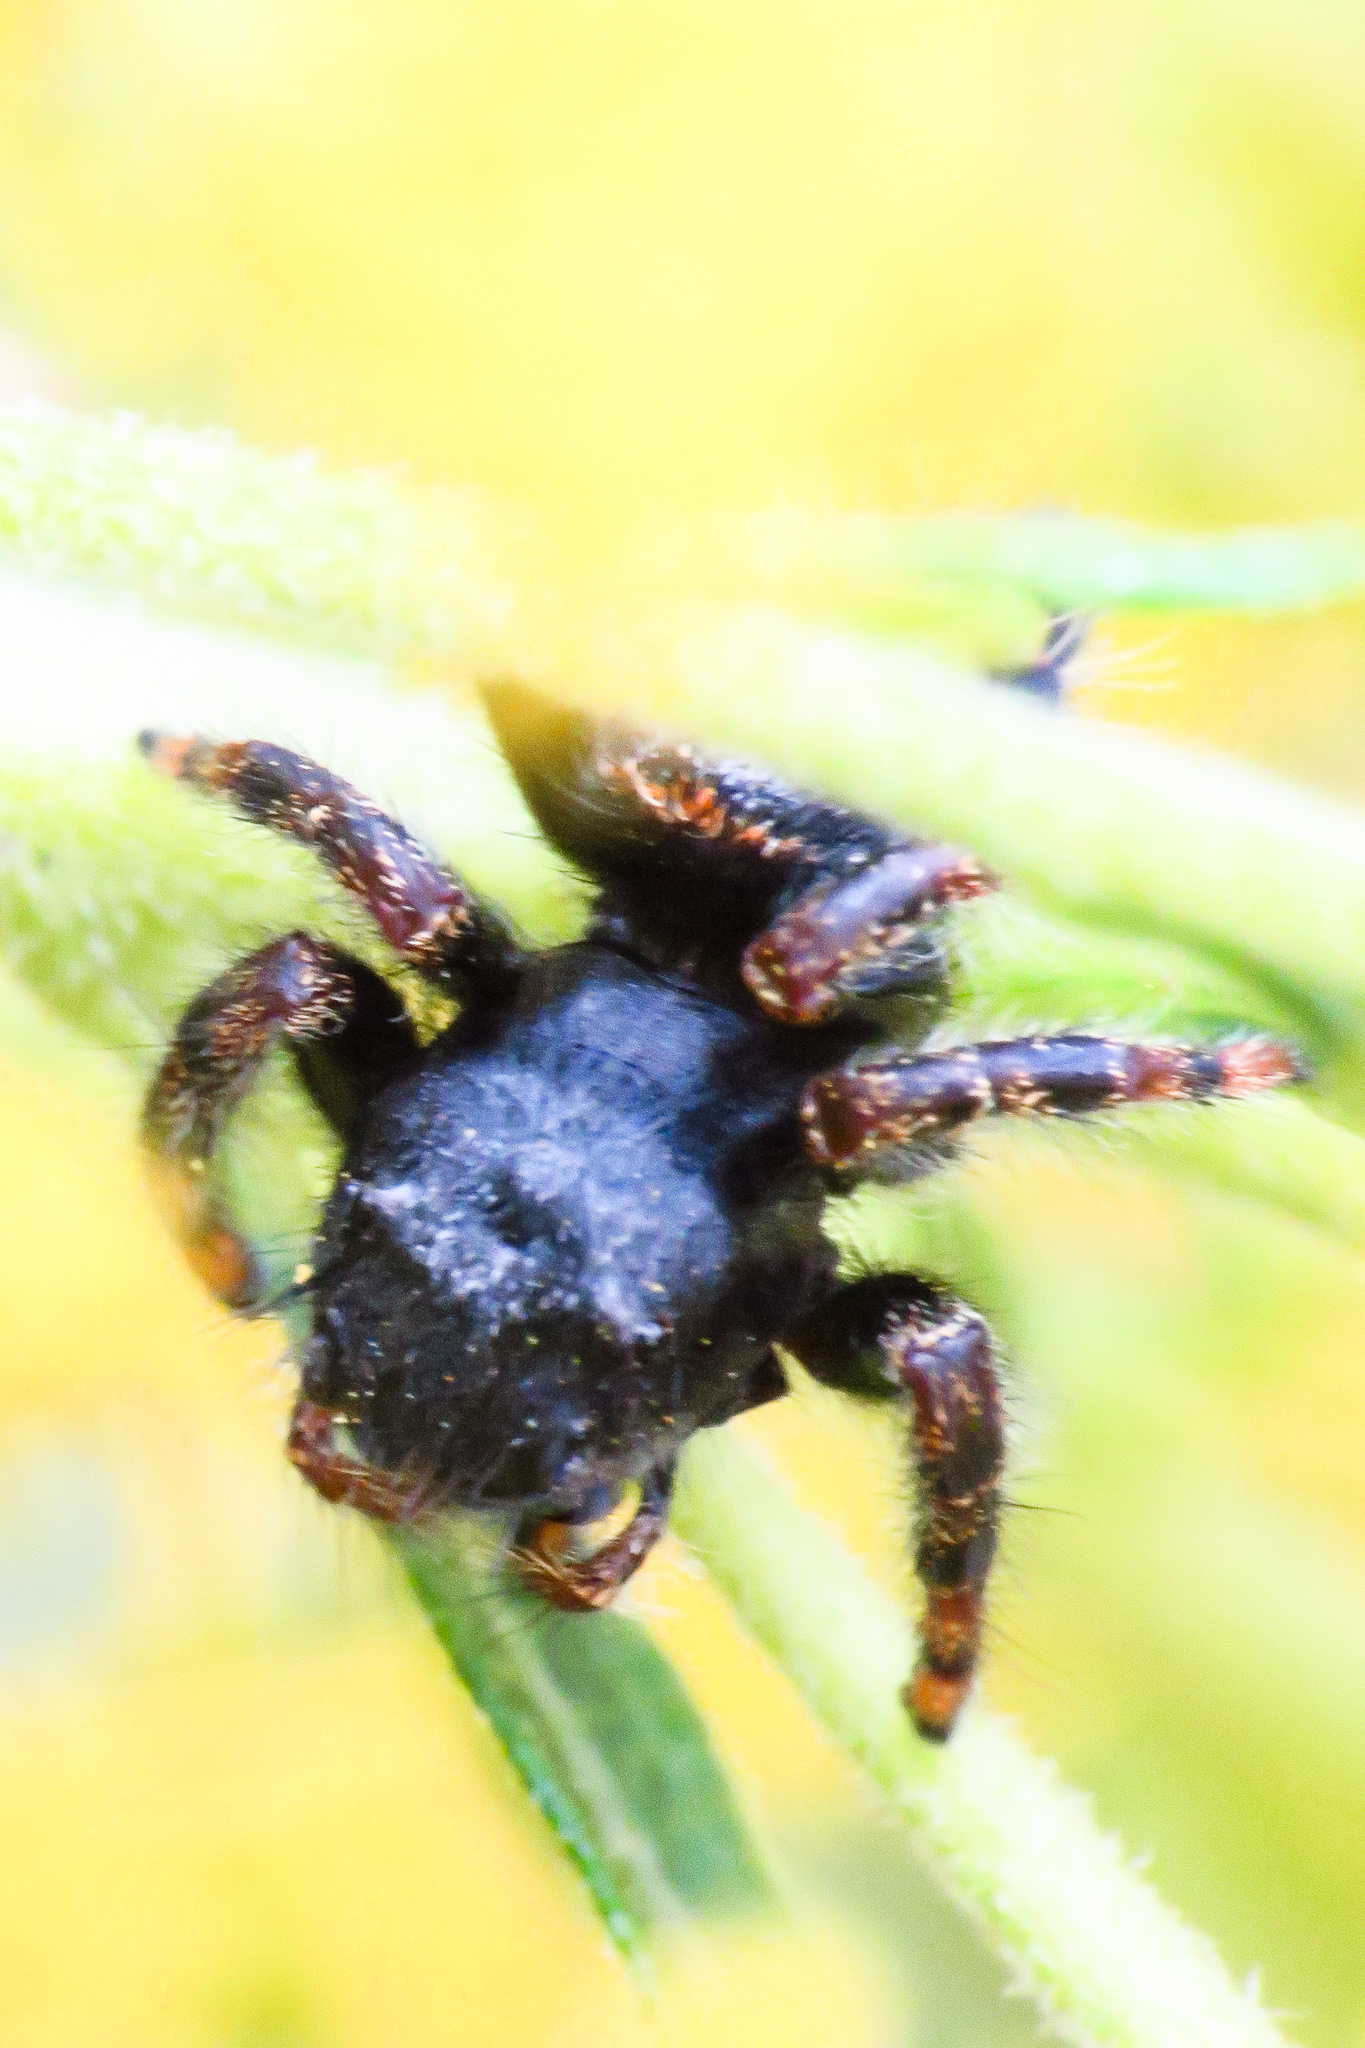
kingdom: Animalia
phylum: Arthropoda
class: Arachnida
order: Araneae
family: Salticidae
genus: Phidippus
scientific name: Phidippus audax
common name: Bold jumper
